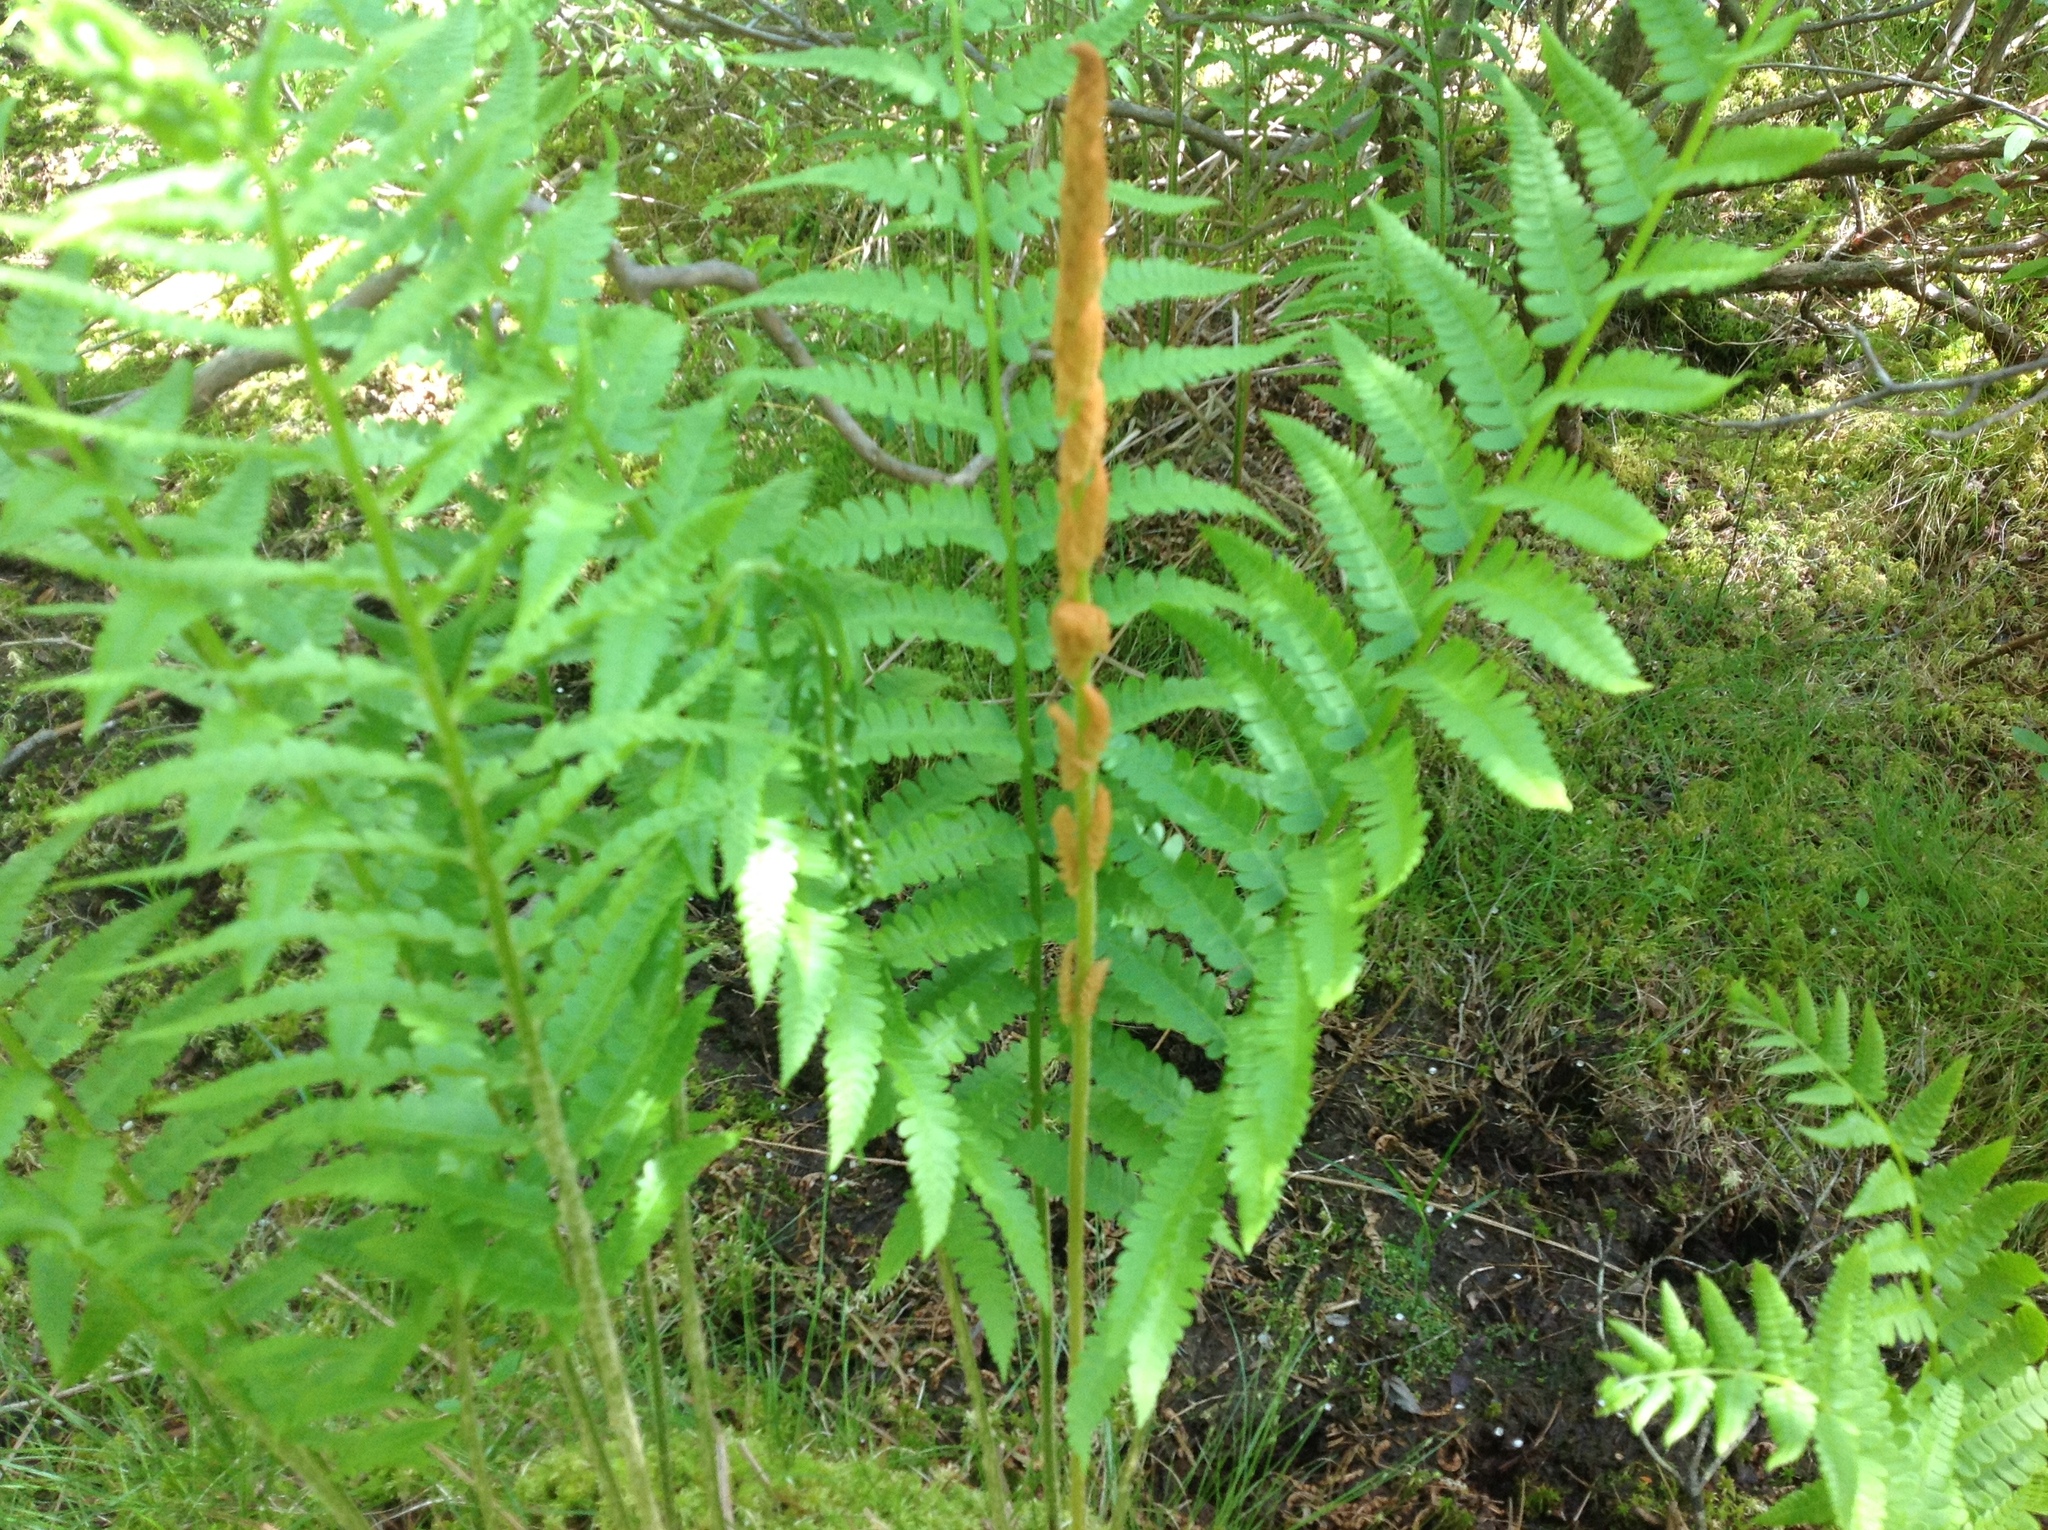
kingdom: Plantae
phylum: Tracheophyta
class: Polypodiopsida
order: Osmundales
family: Osmundaceae
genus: Osmundastrum
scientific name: Osmundastrum cinnamomeum
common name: Cinnamon fern
